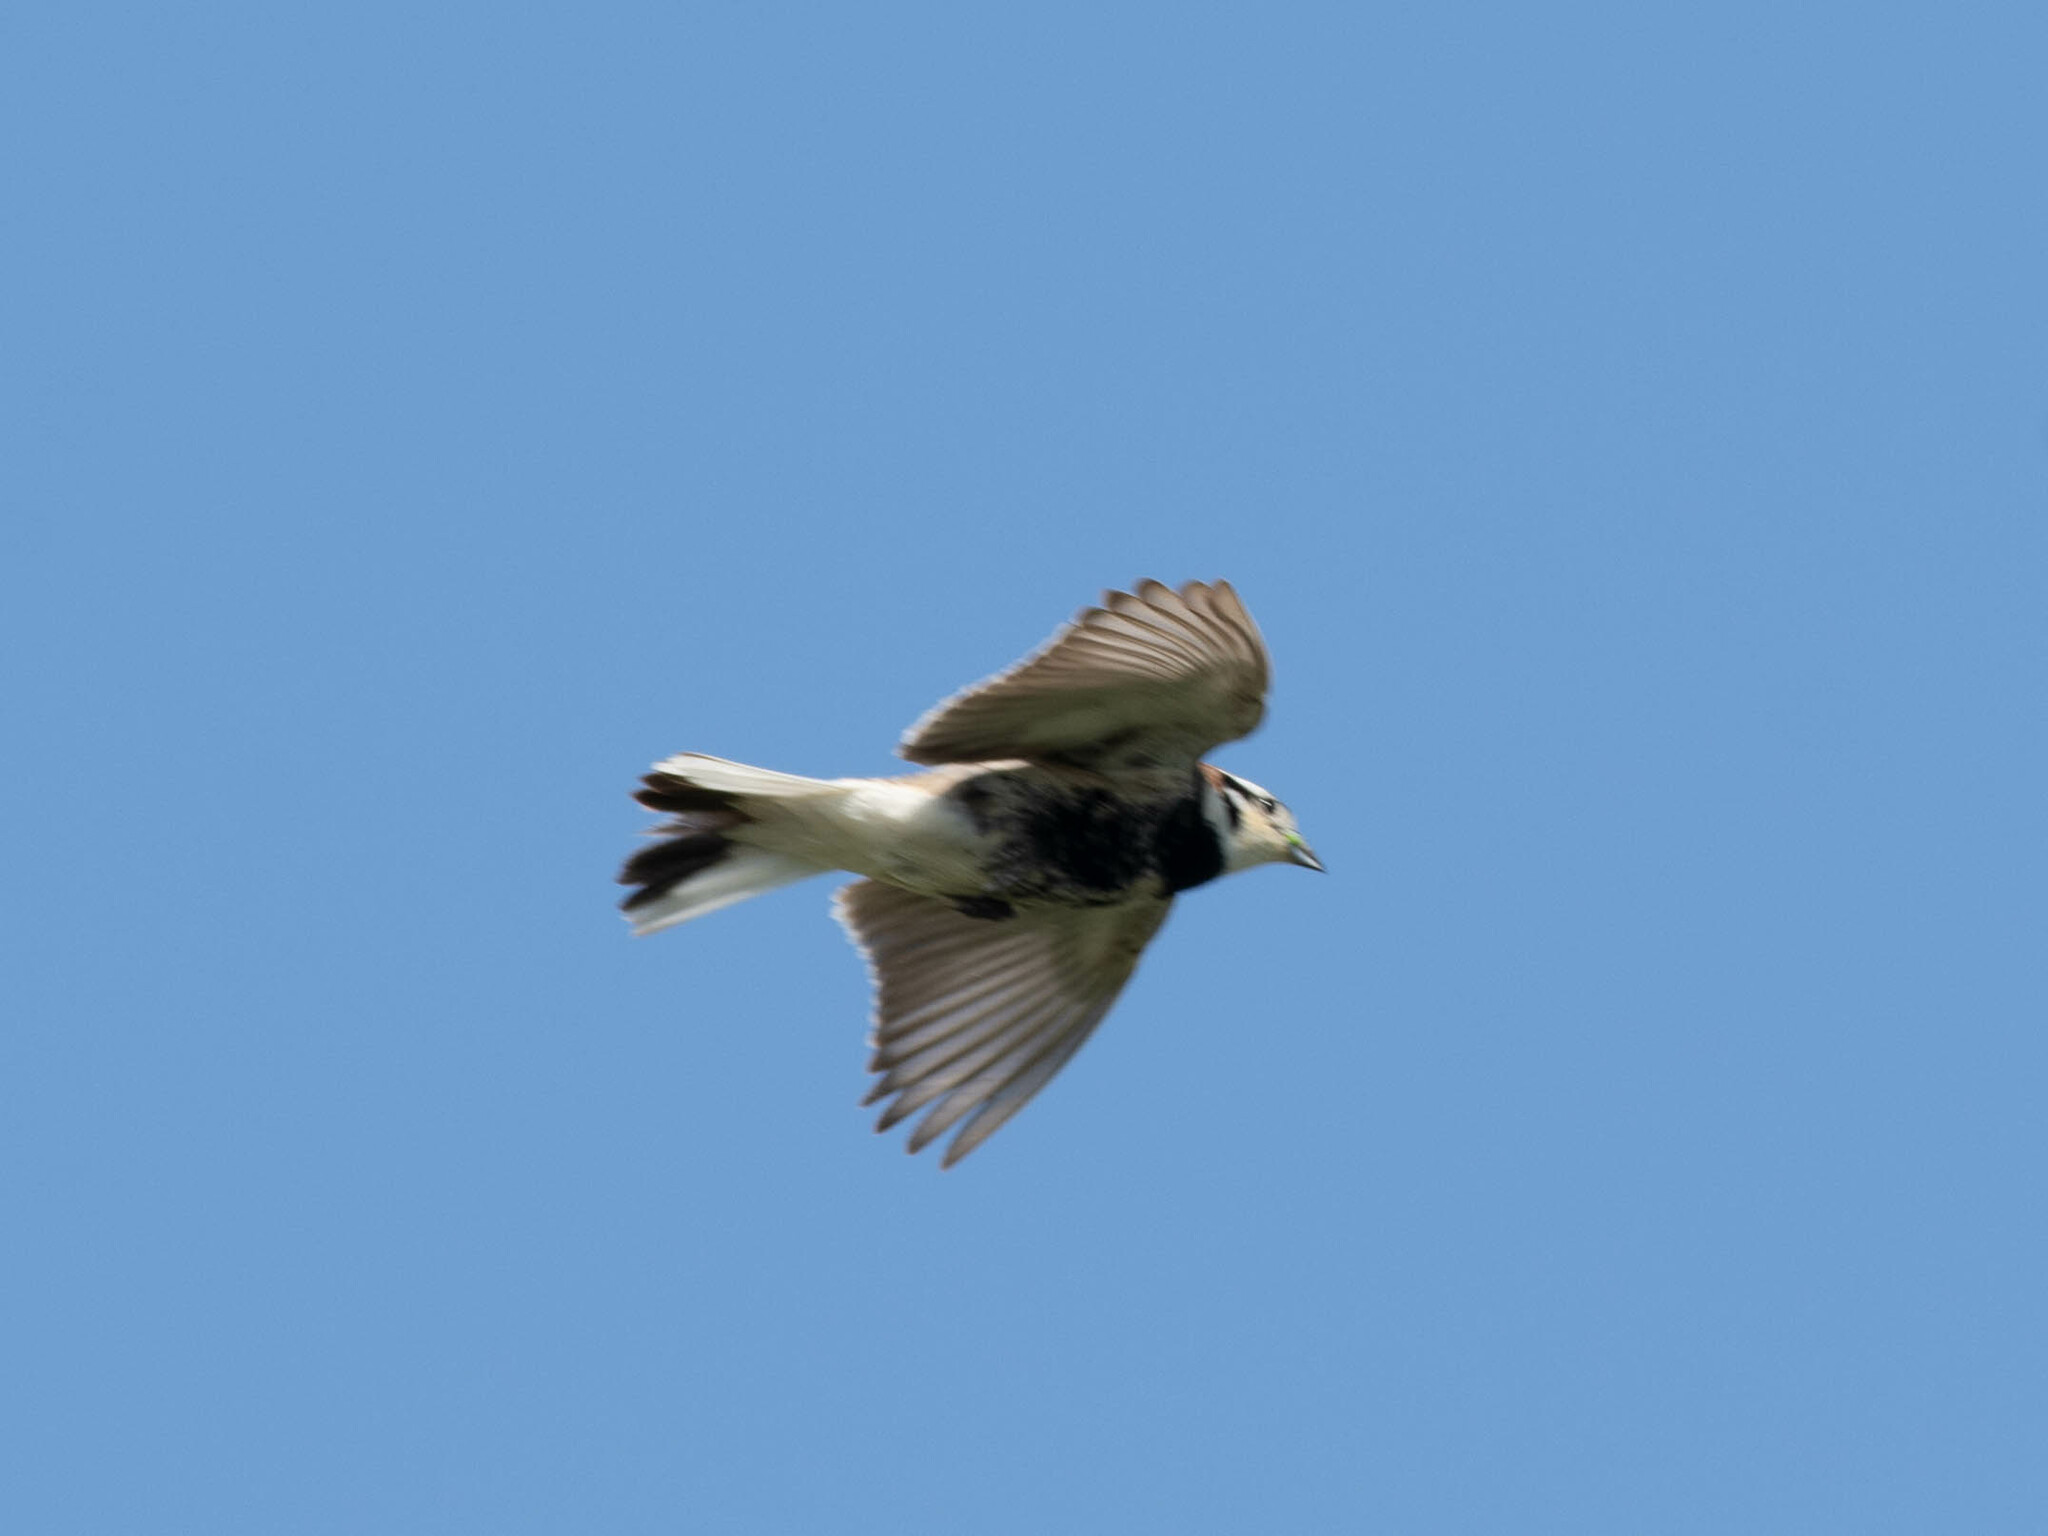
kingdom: Animalia
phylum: Chordata
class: Aves
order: Passeriformes
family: Calcariidae
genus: Calcarius
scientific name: Calcarius ornatus
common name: Chestnut-collared longspur
